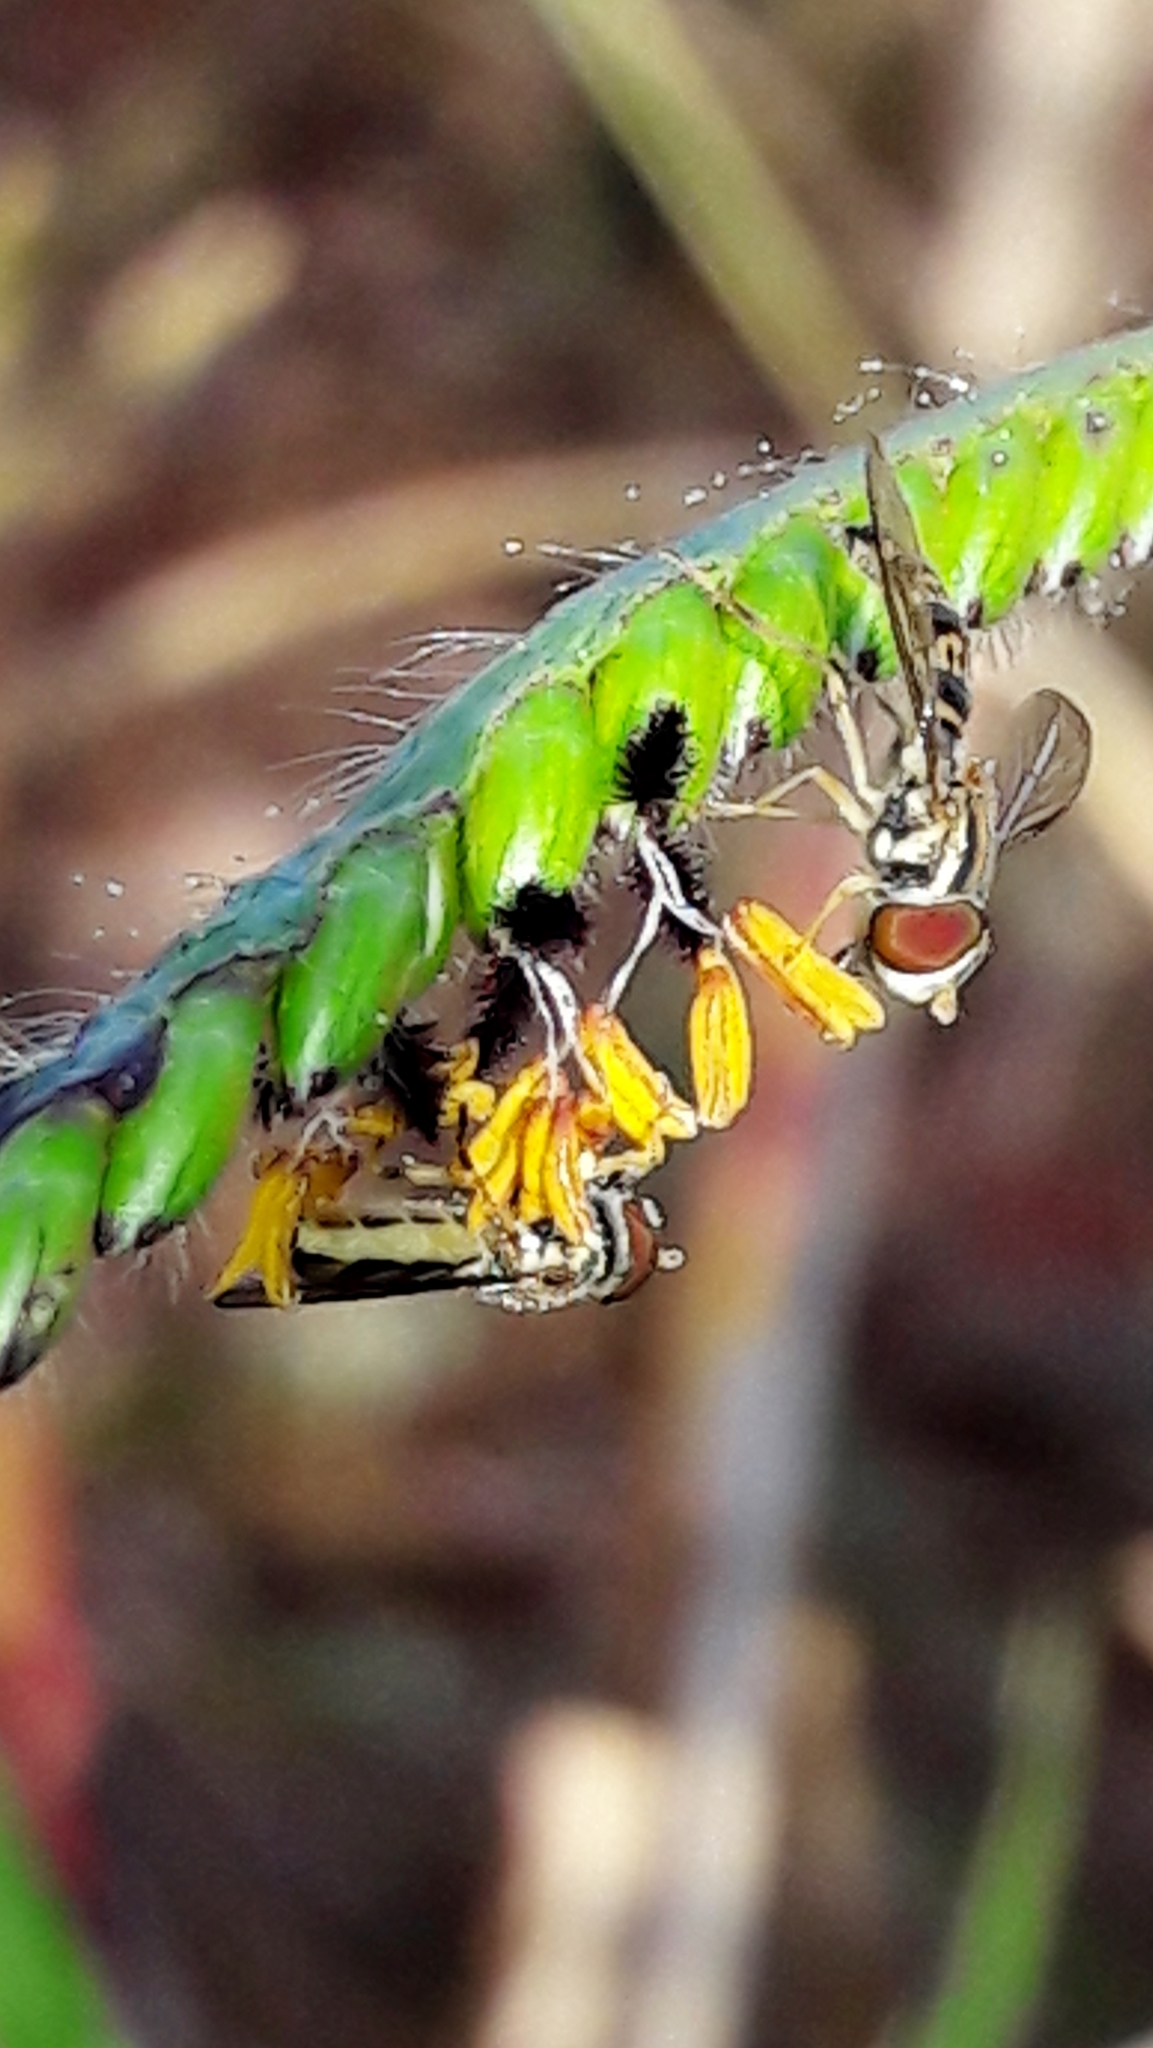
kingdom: Animalia
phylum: Arthropoda
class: Insecta
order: Diptera
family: Syrphidae
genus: Toxomerus
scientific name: Toxomerus
